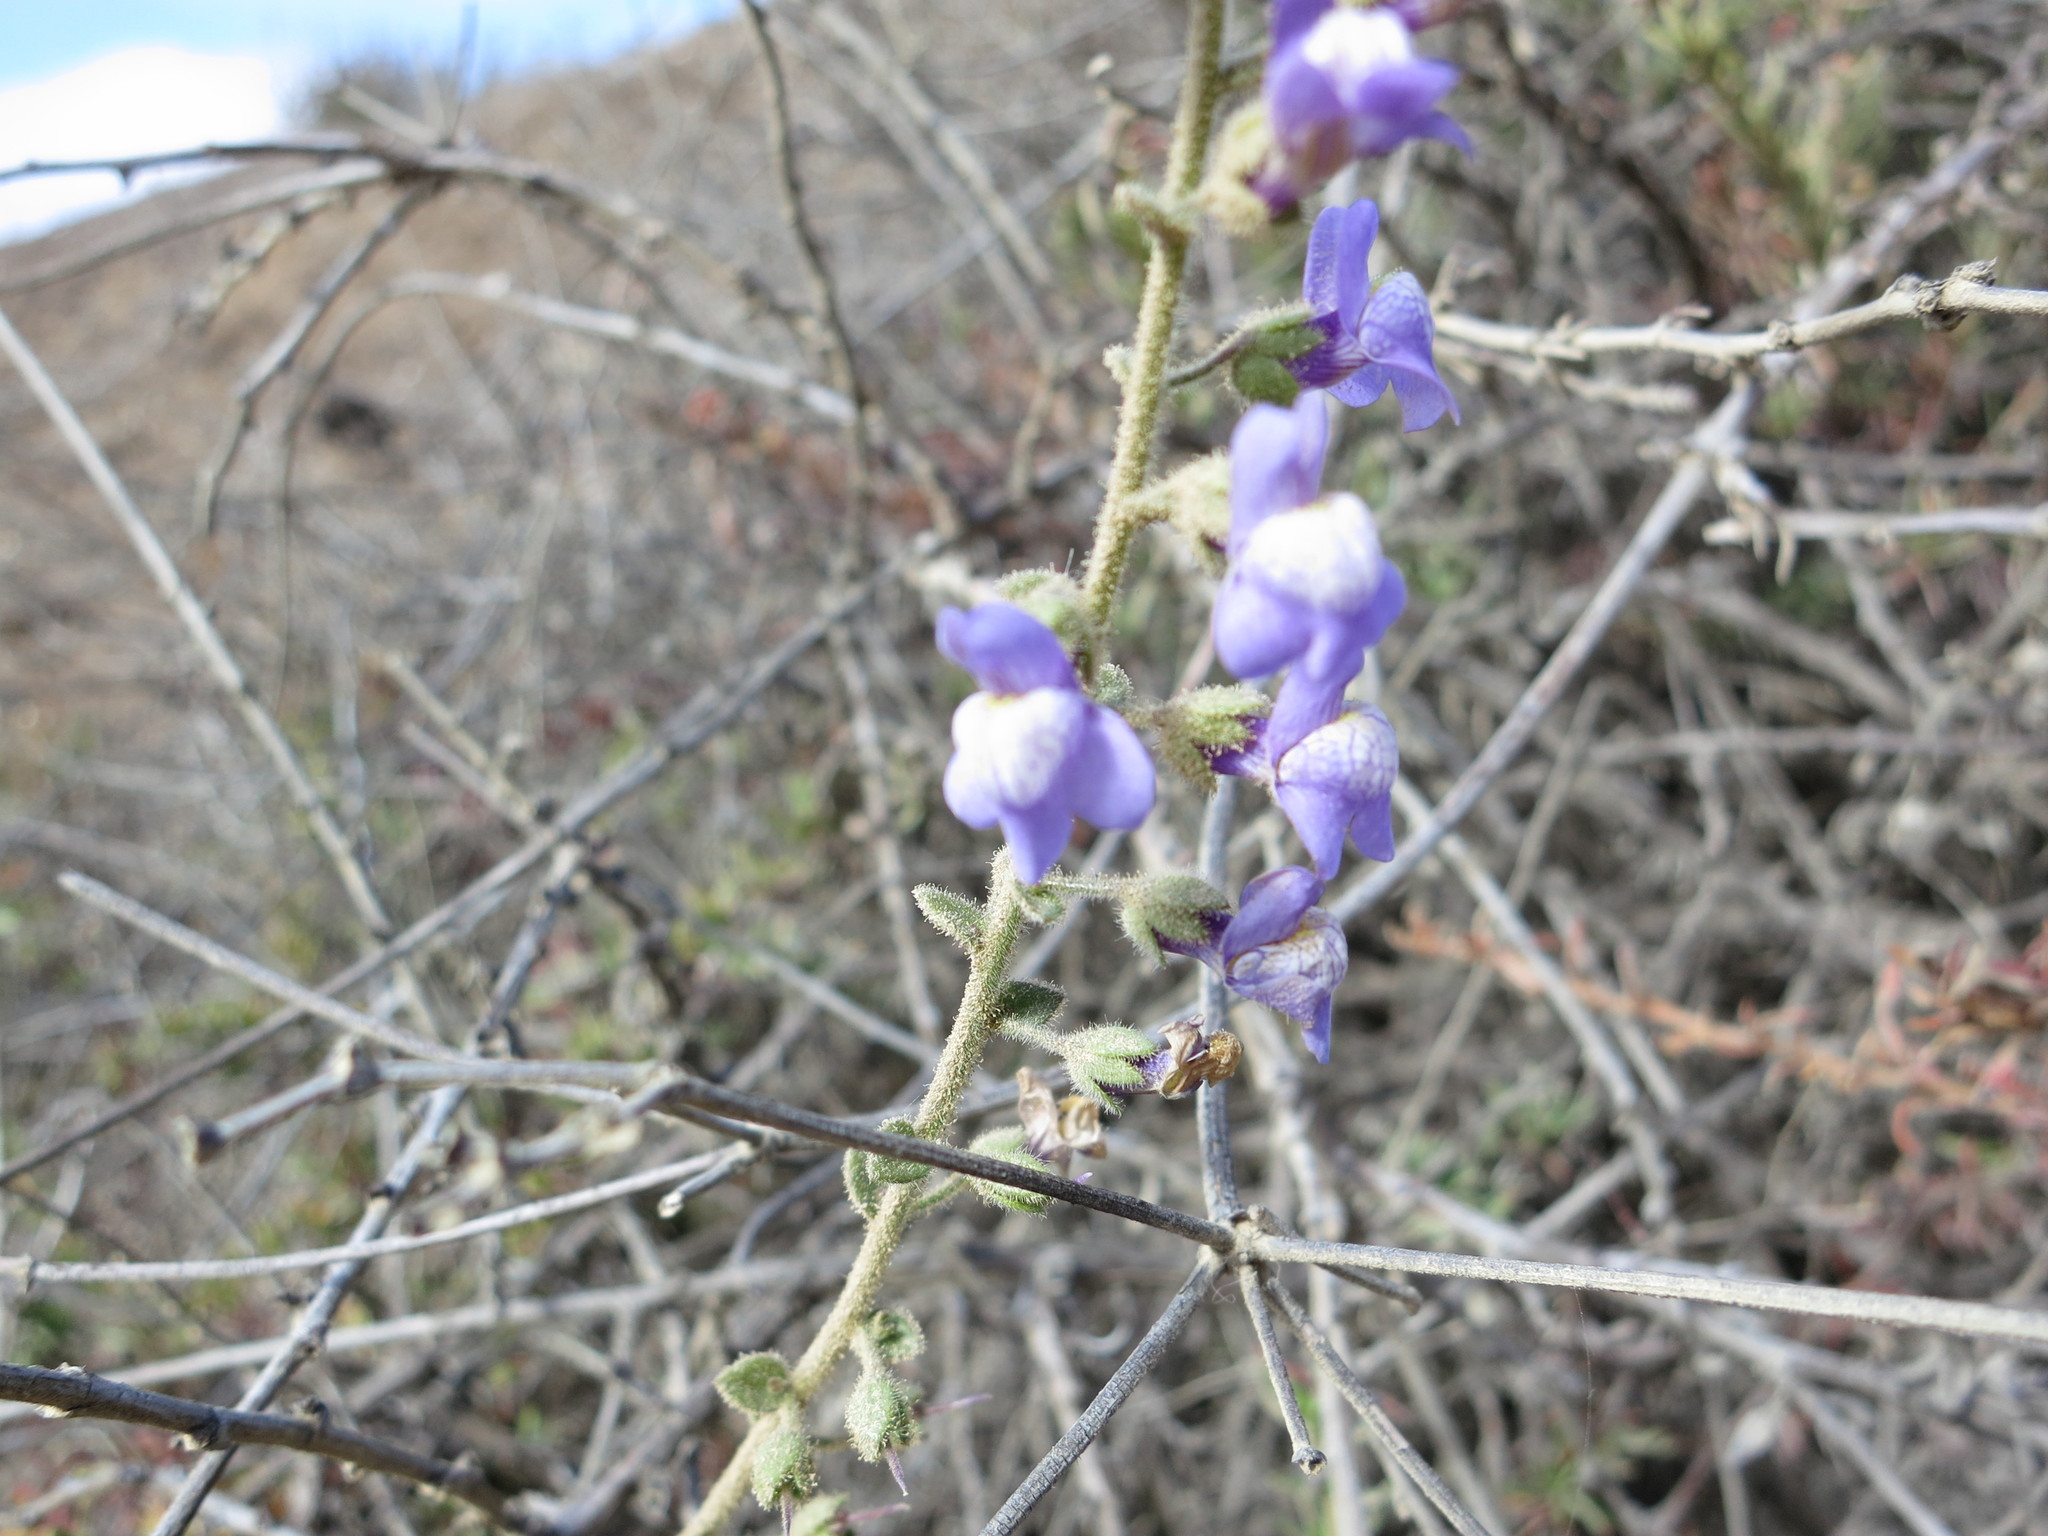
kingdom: Plantae
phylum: Tracheophyta
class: Magnoliopsida
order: Lamiales
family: Plantaginaceae
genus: Sairocarpus
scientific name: Sairocarpus nuttallianus
